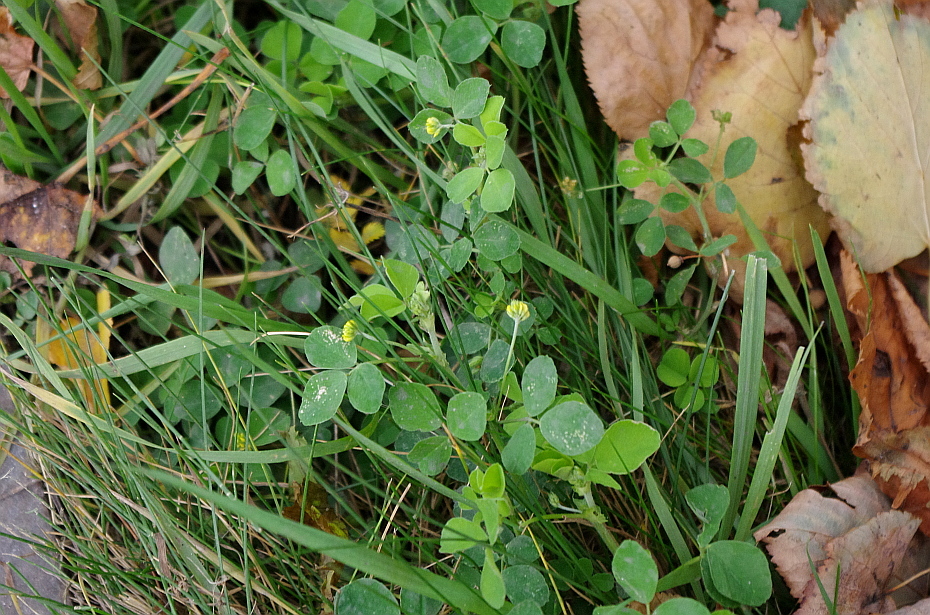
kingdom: Plantae
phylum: Tracheophyta
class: Magnoliopsida
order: Fabales
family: Fabaceae
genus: Medicago
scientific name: Medicago lupulina
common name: Black medick
